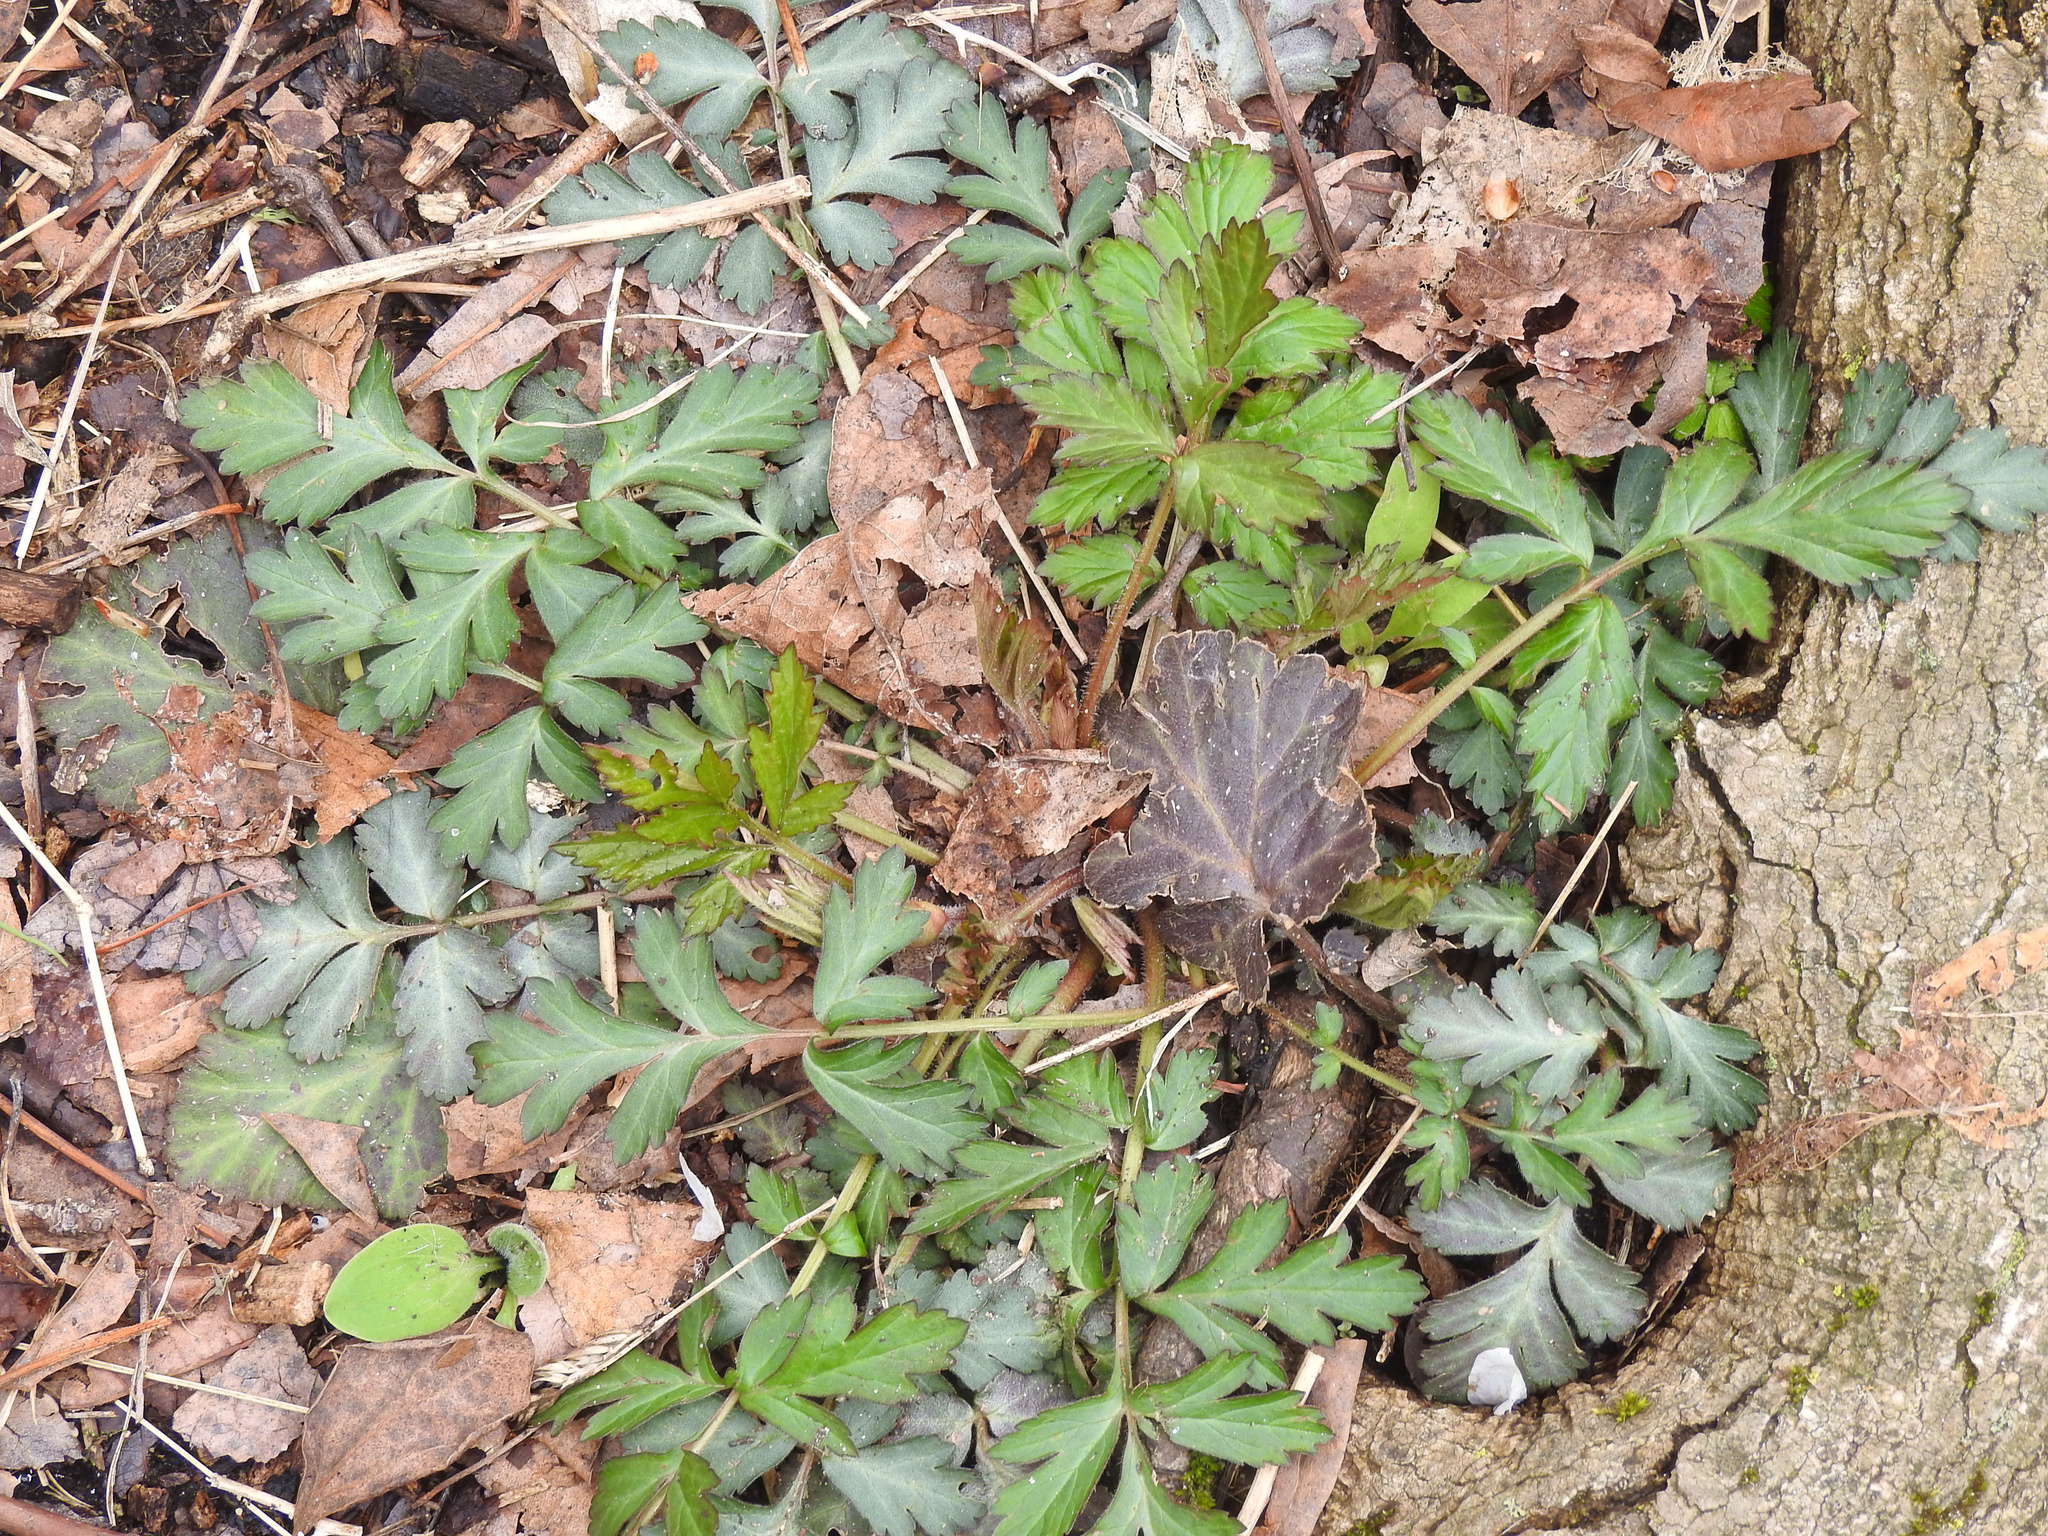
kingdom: Plantae
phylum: Tracheophyta
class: Magnoliopsida
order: Rosales
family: Rosaceae
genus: Geum
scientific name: Geum canadense
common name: White avens
